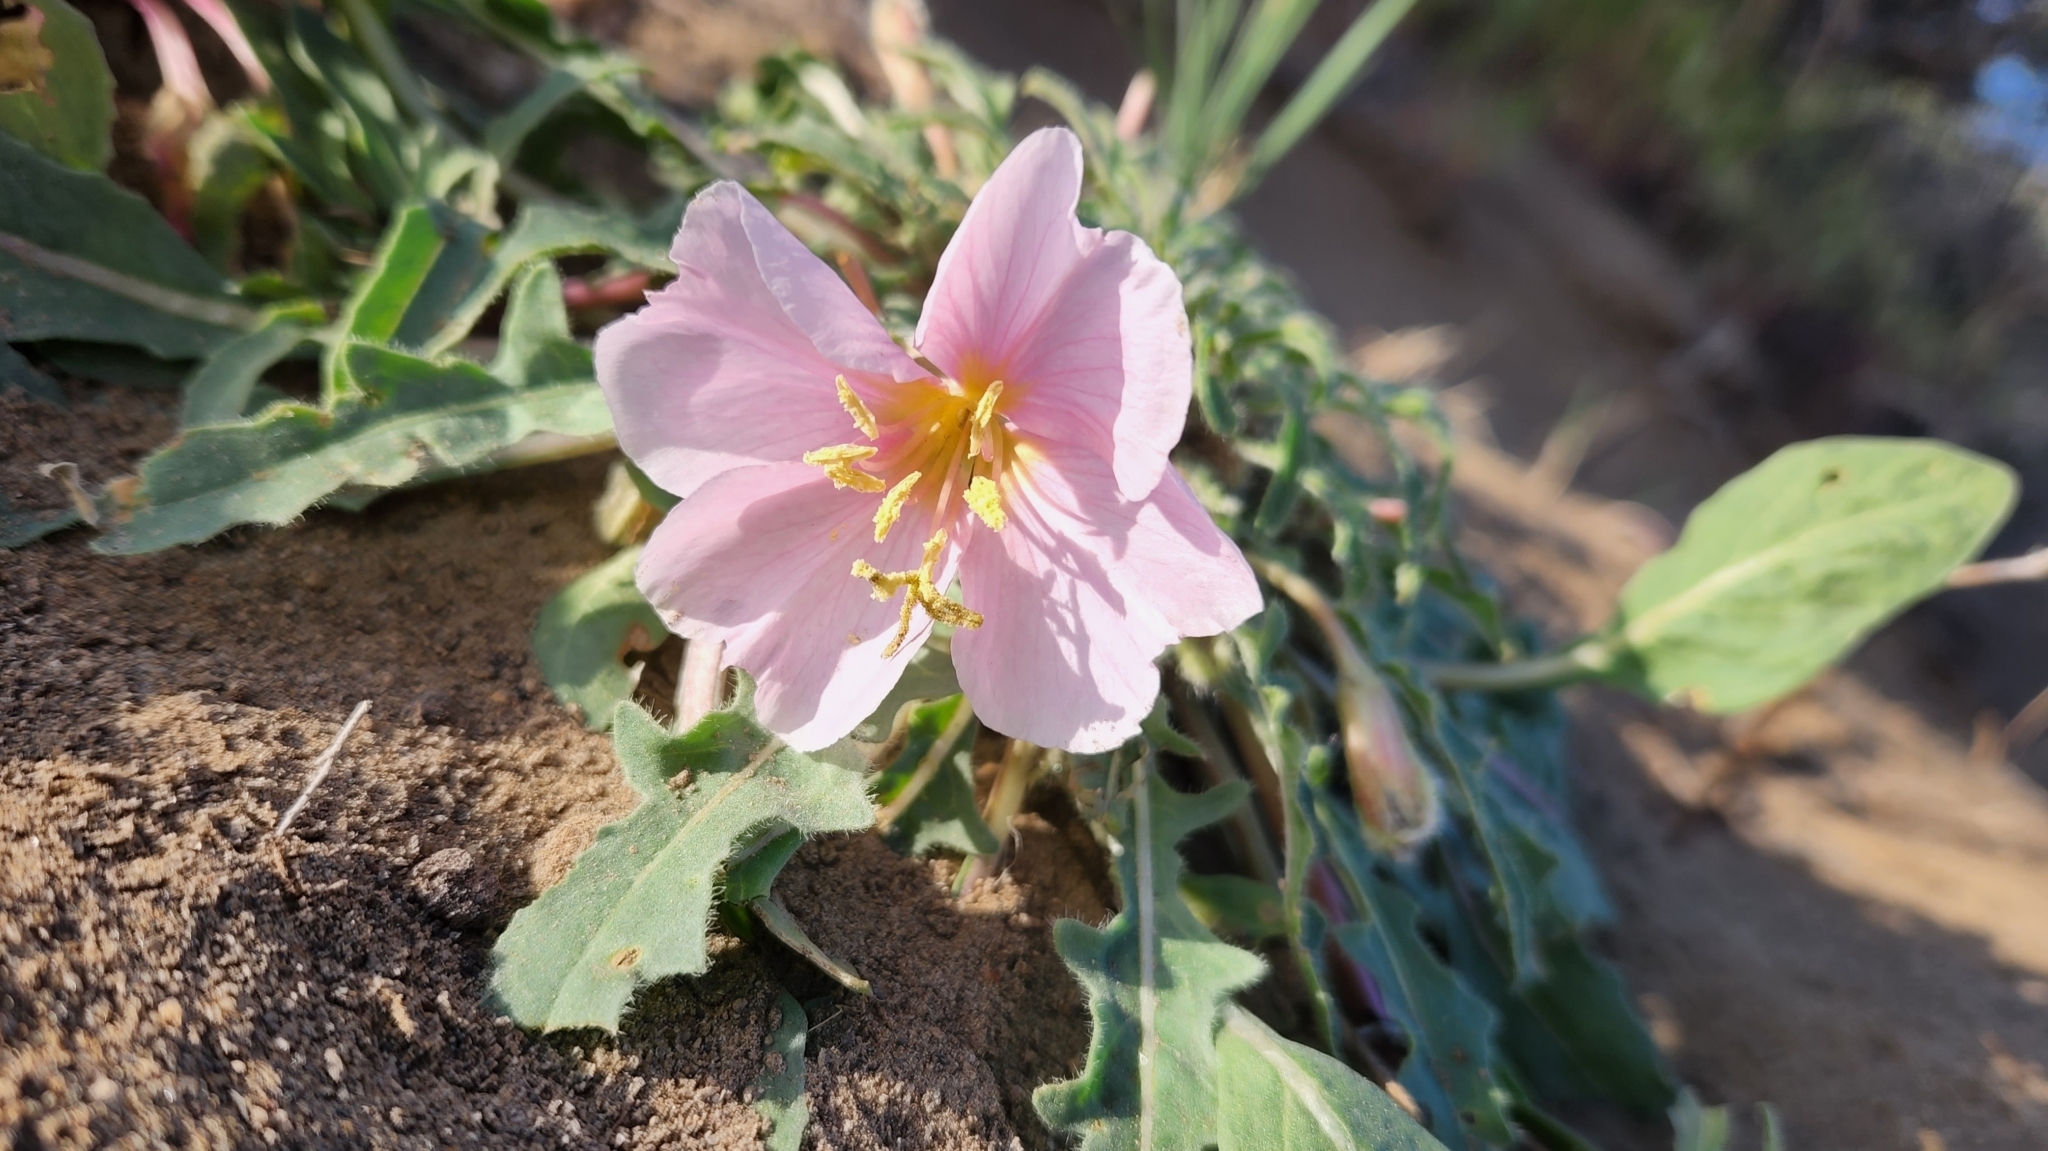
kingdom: Plantae
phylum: Tracheophyta
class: Magnoliopsida
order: Myrtales
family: Onagraceae
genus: Oenothera
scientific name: Oenothera cespitosa
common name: Tufted evening-primrose
